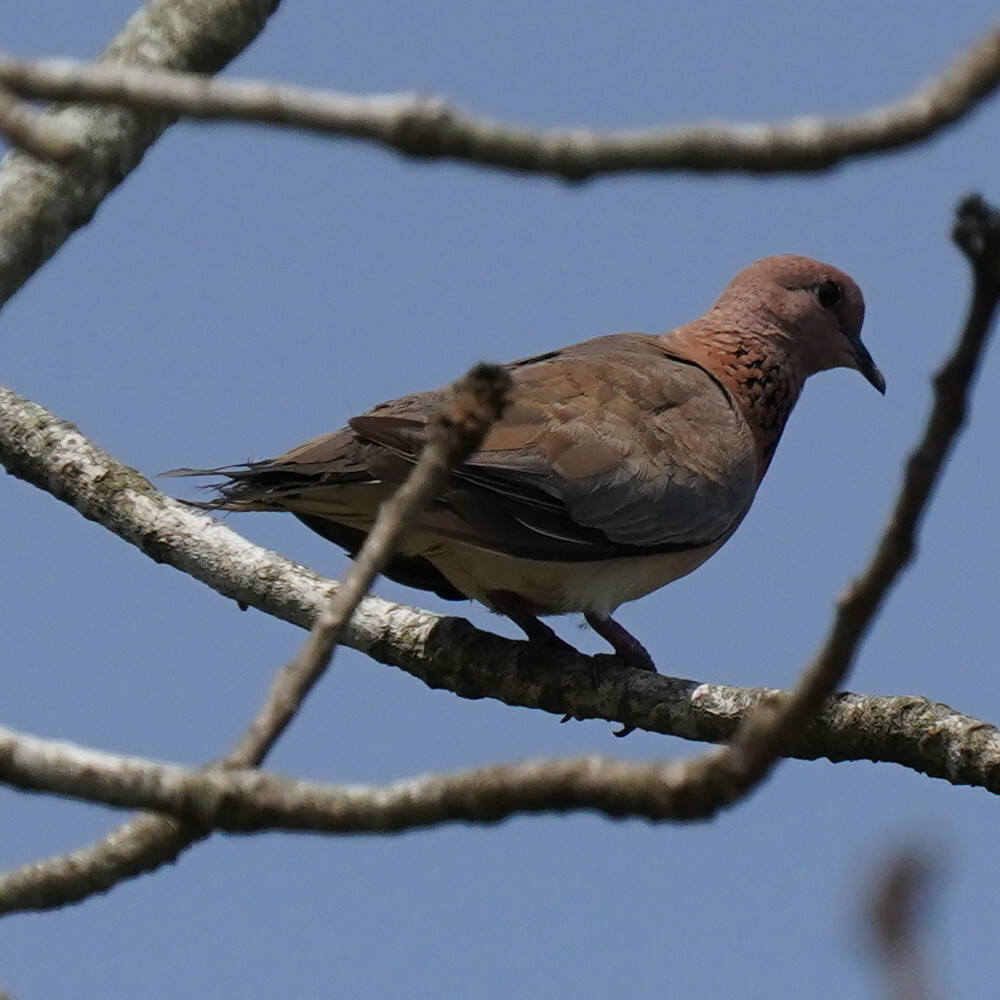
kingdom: Animalia
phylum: Chordata
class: Aves
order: Columbiformes
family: Columbidae
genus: Spilopelia
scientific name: Spilopelia senegalensis
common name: Laughing dove
